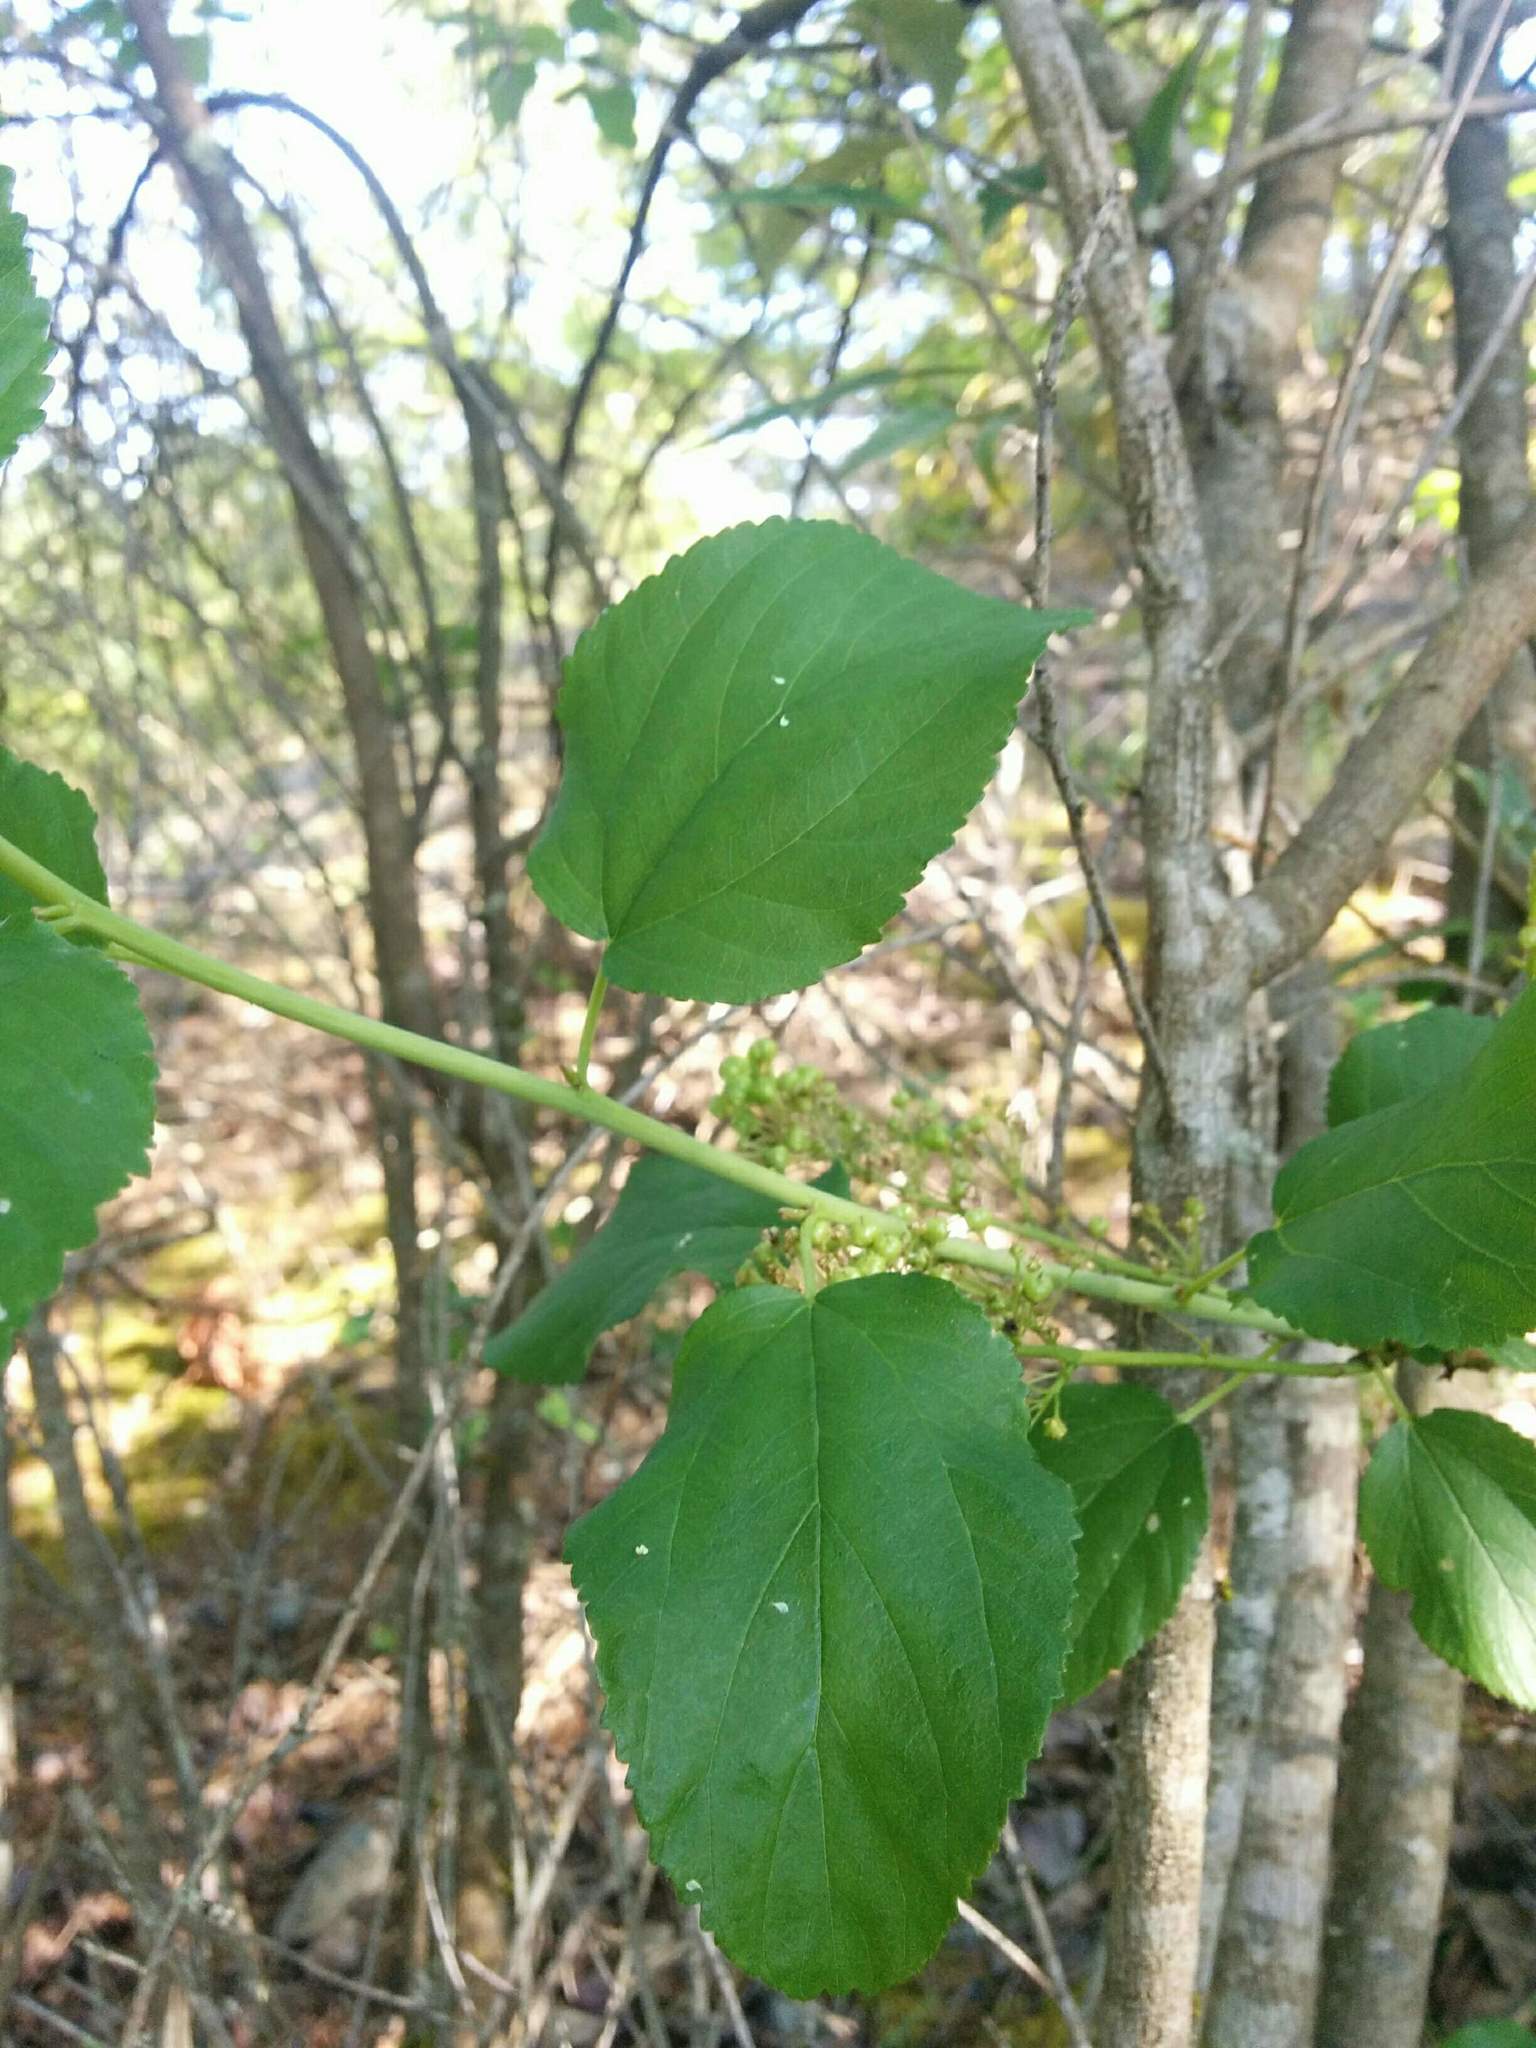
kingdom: Plantae
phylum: Tracheophyta
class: Magnoliopsida
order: Rosales
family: Rhamnaceae
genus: Ceanothus
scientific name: Ceanothus sanguineus
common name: Teatree
